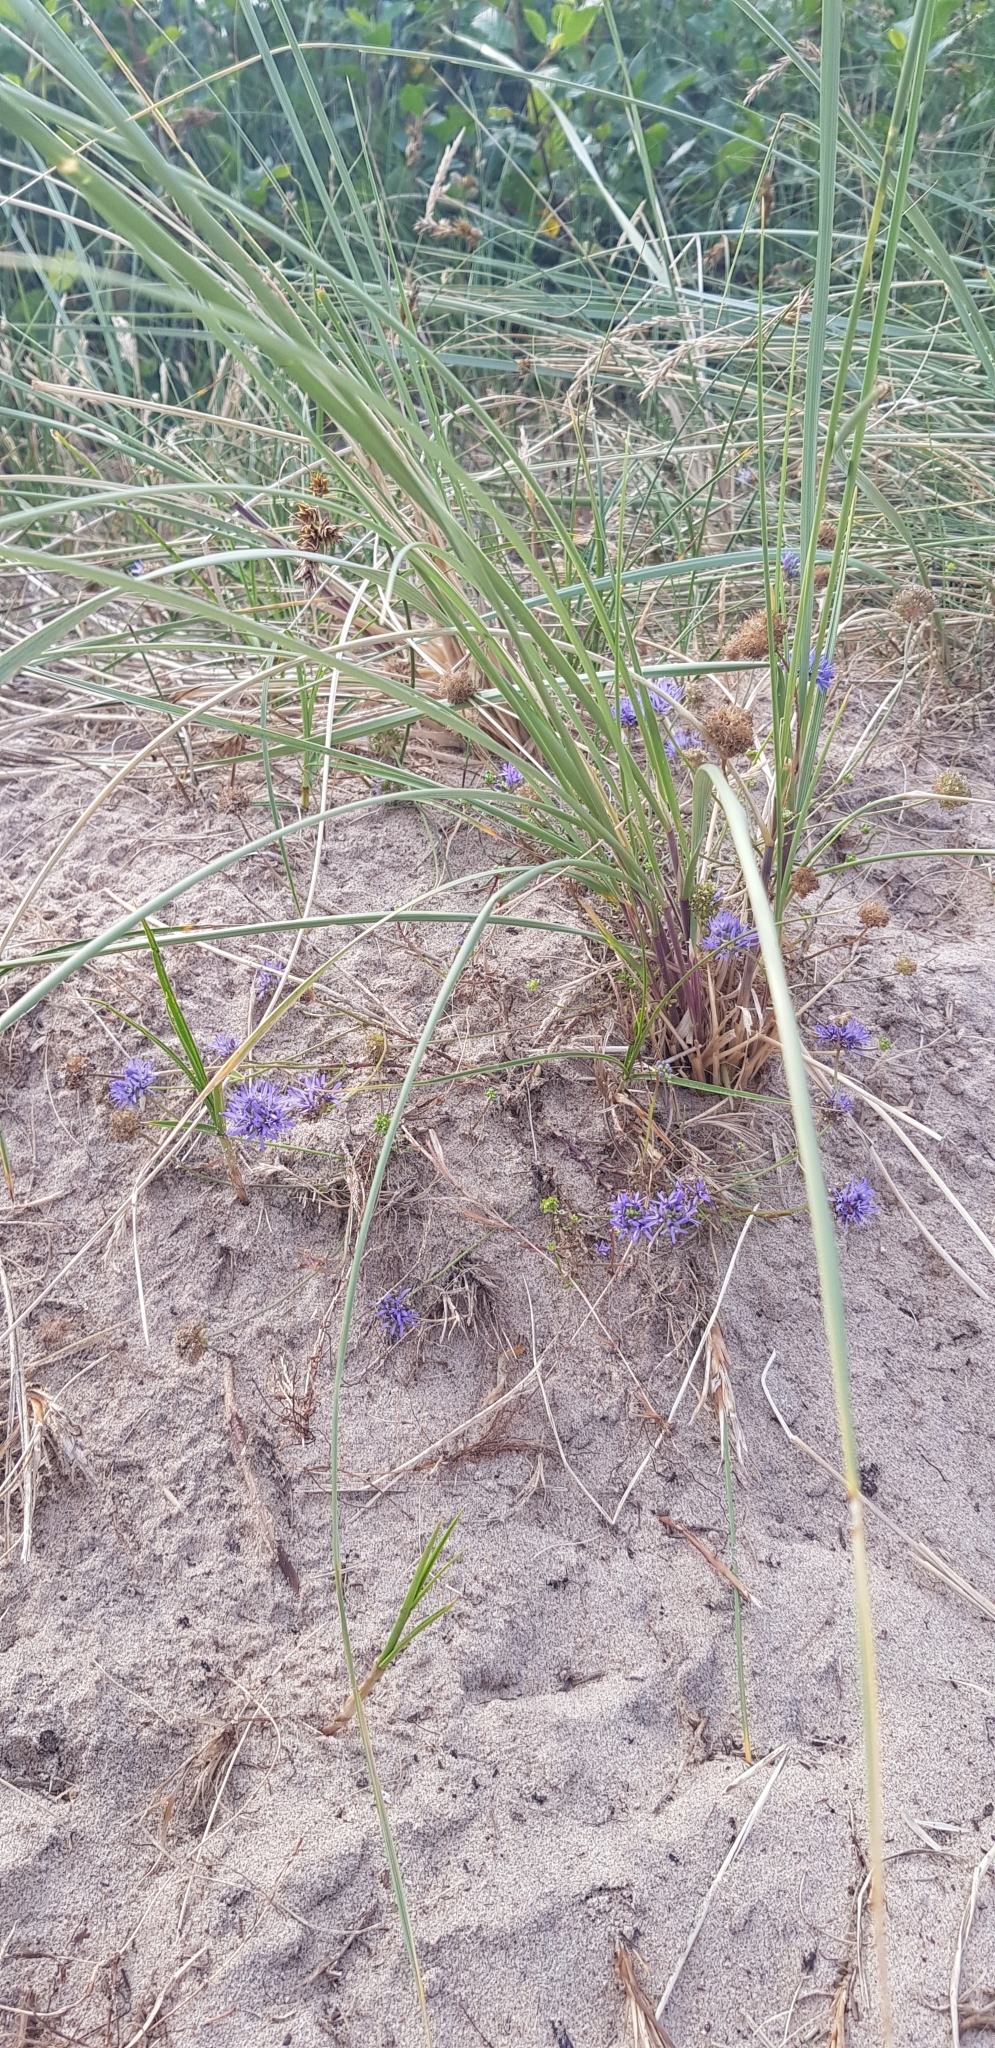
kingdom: Plantae
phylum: Tracheophyta
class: Magnoliopsida
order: Asterales
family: Campanulaceae
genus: Jasione
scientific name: Jasione montana
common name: Sheep's-bit
